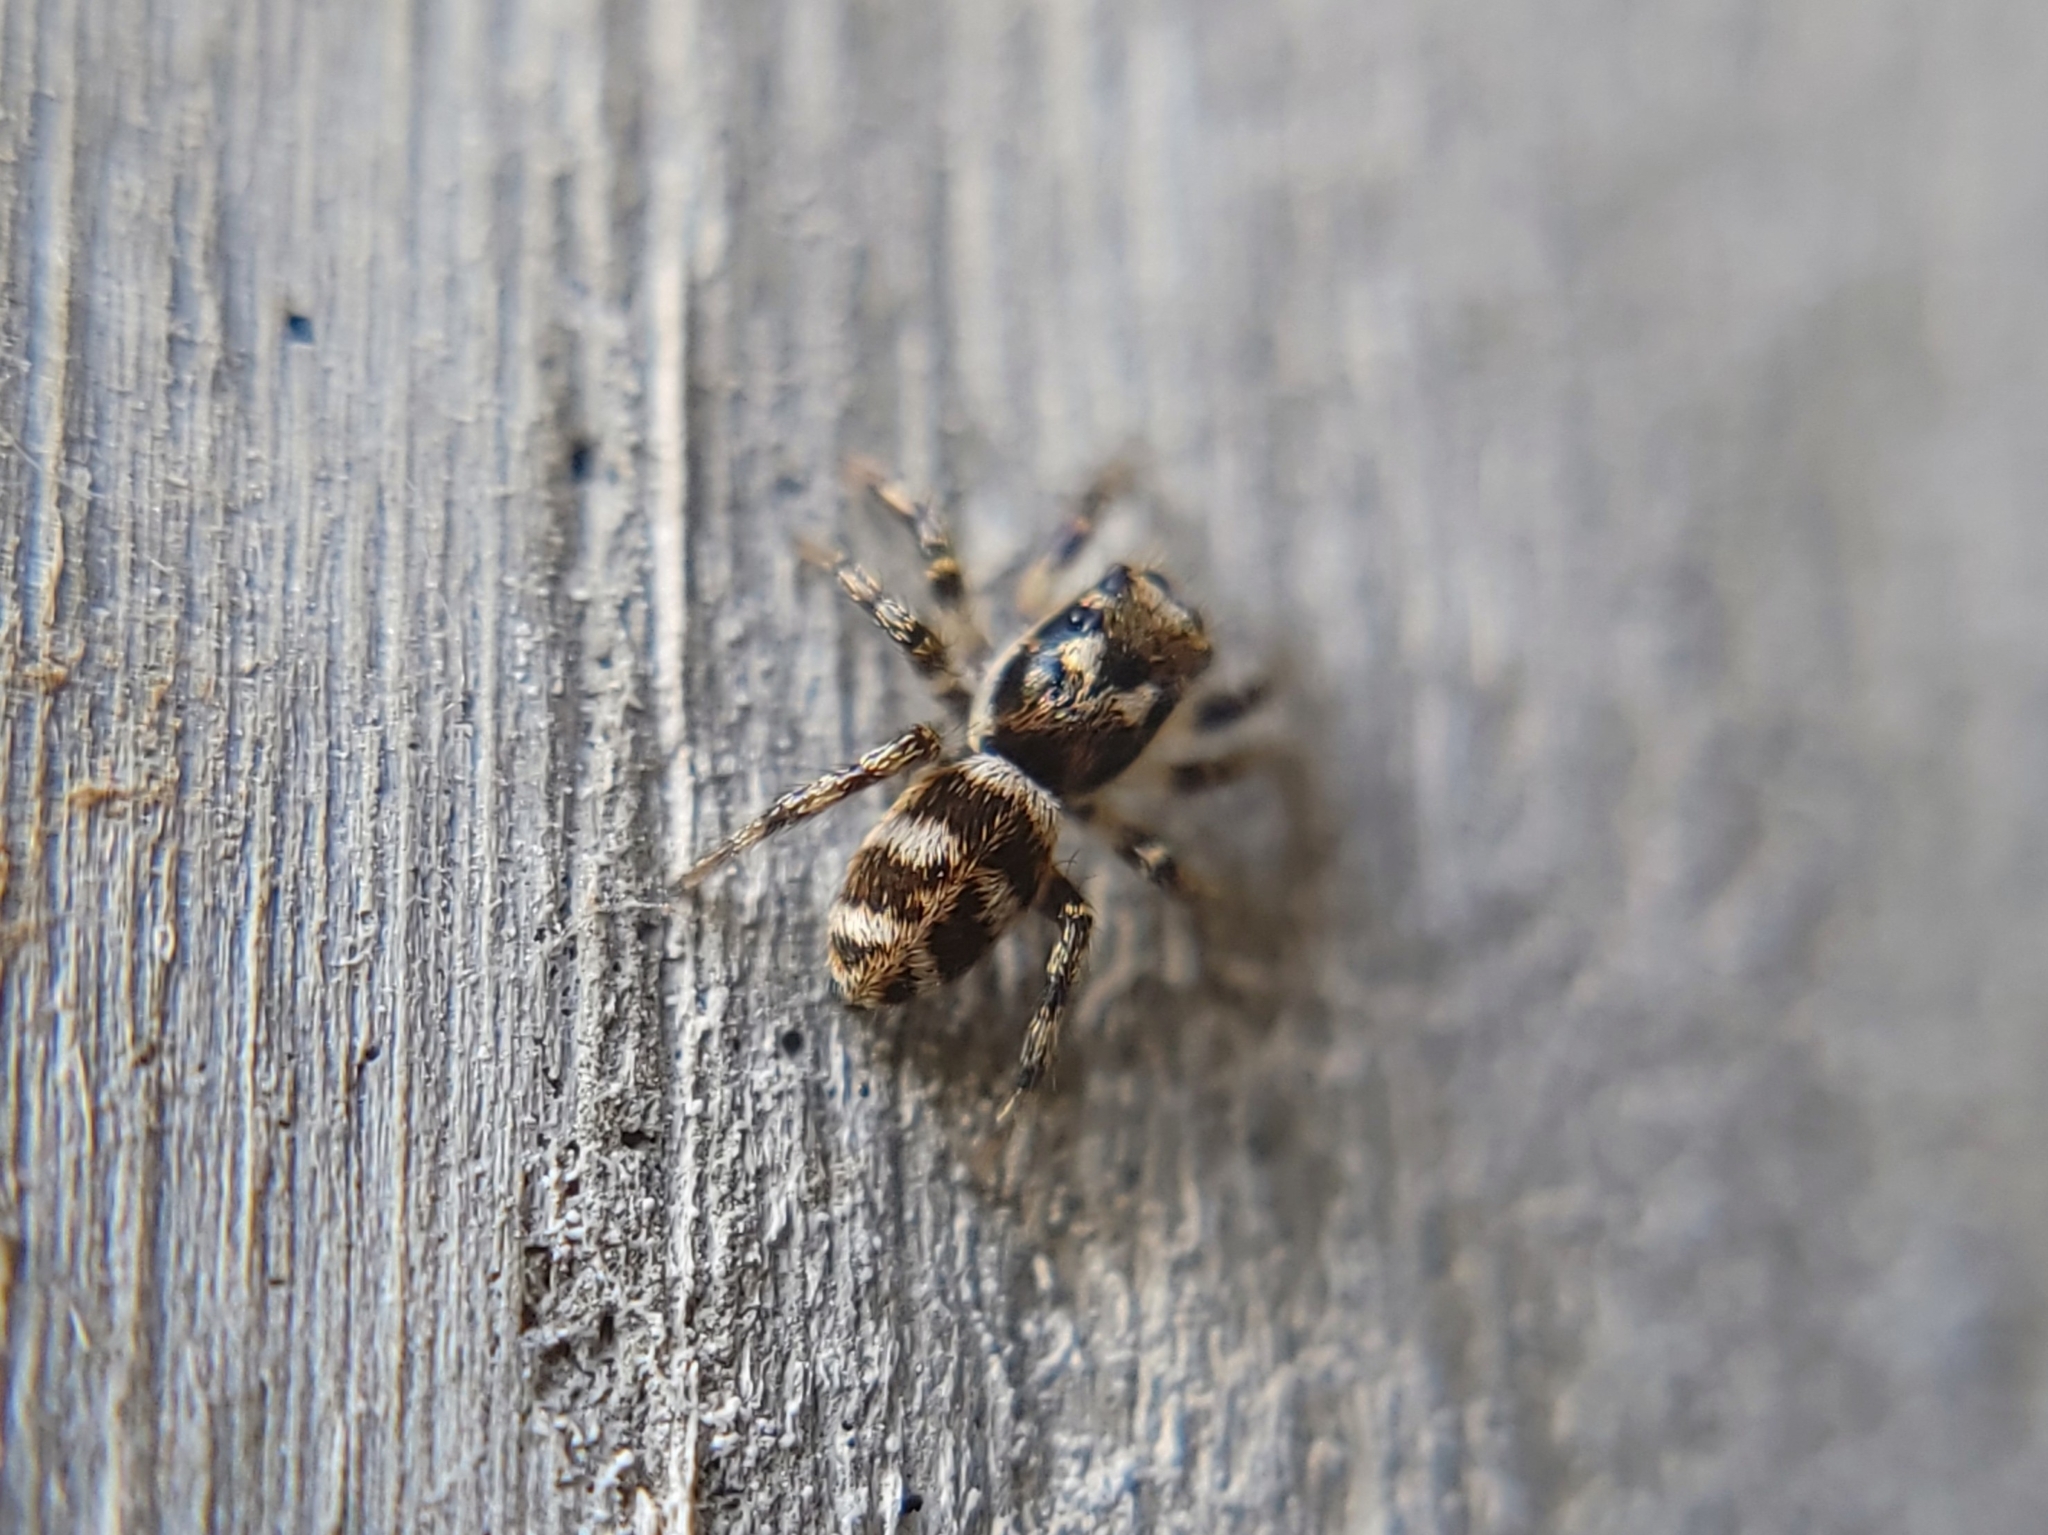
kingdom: Animalia
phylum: Arthropoda
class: Arachnida
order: Araneae
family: Salticidae
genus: Salticus
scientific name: Salticus scenicus
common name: Zebra jumper
